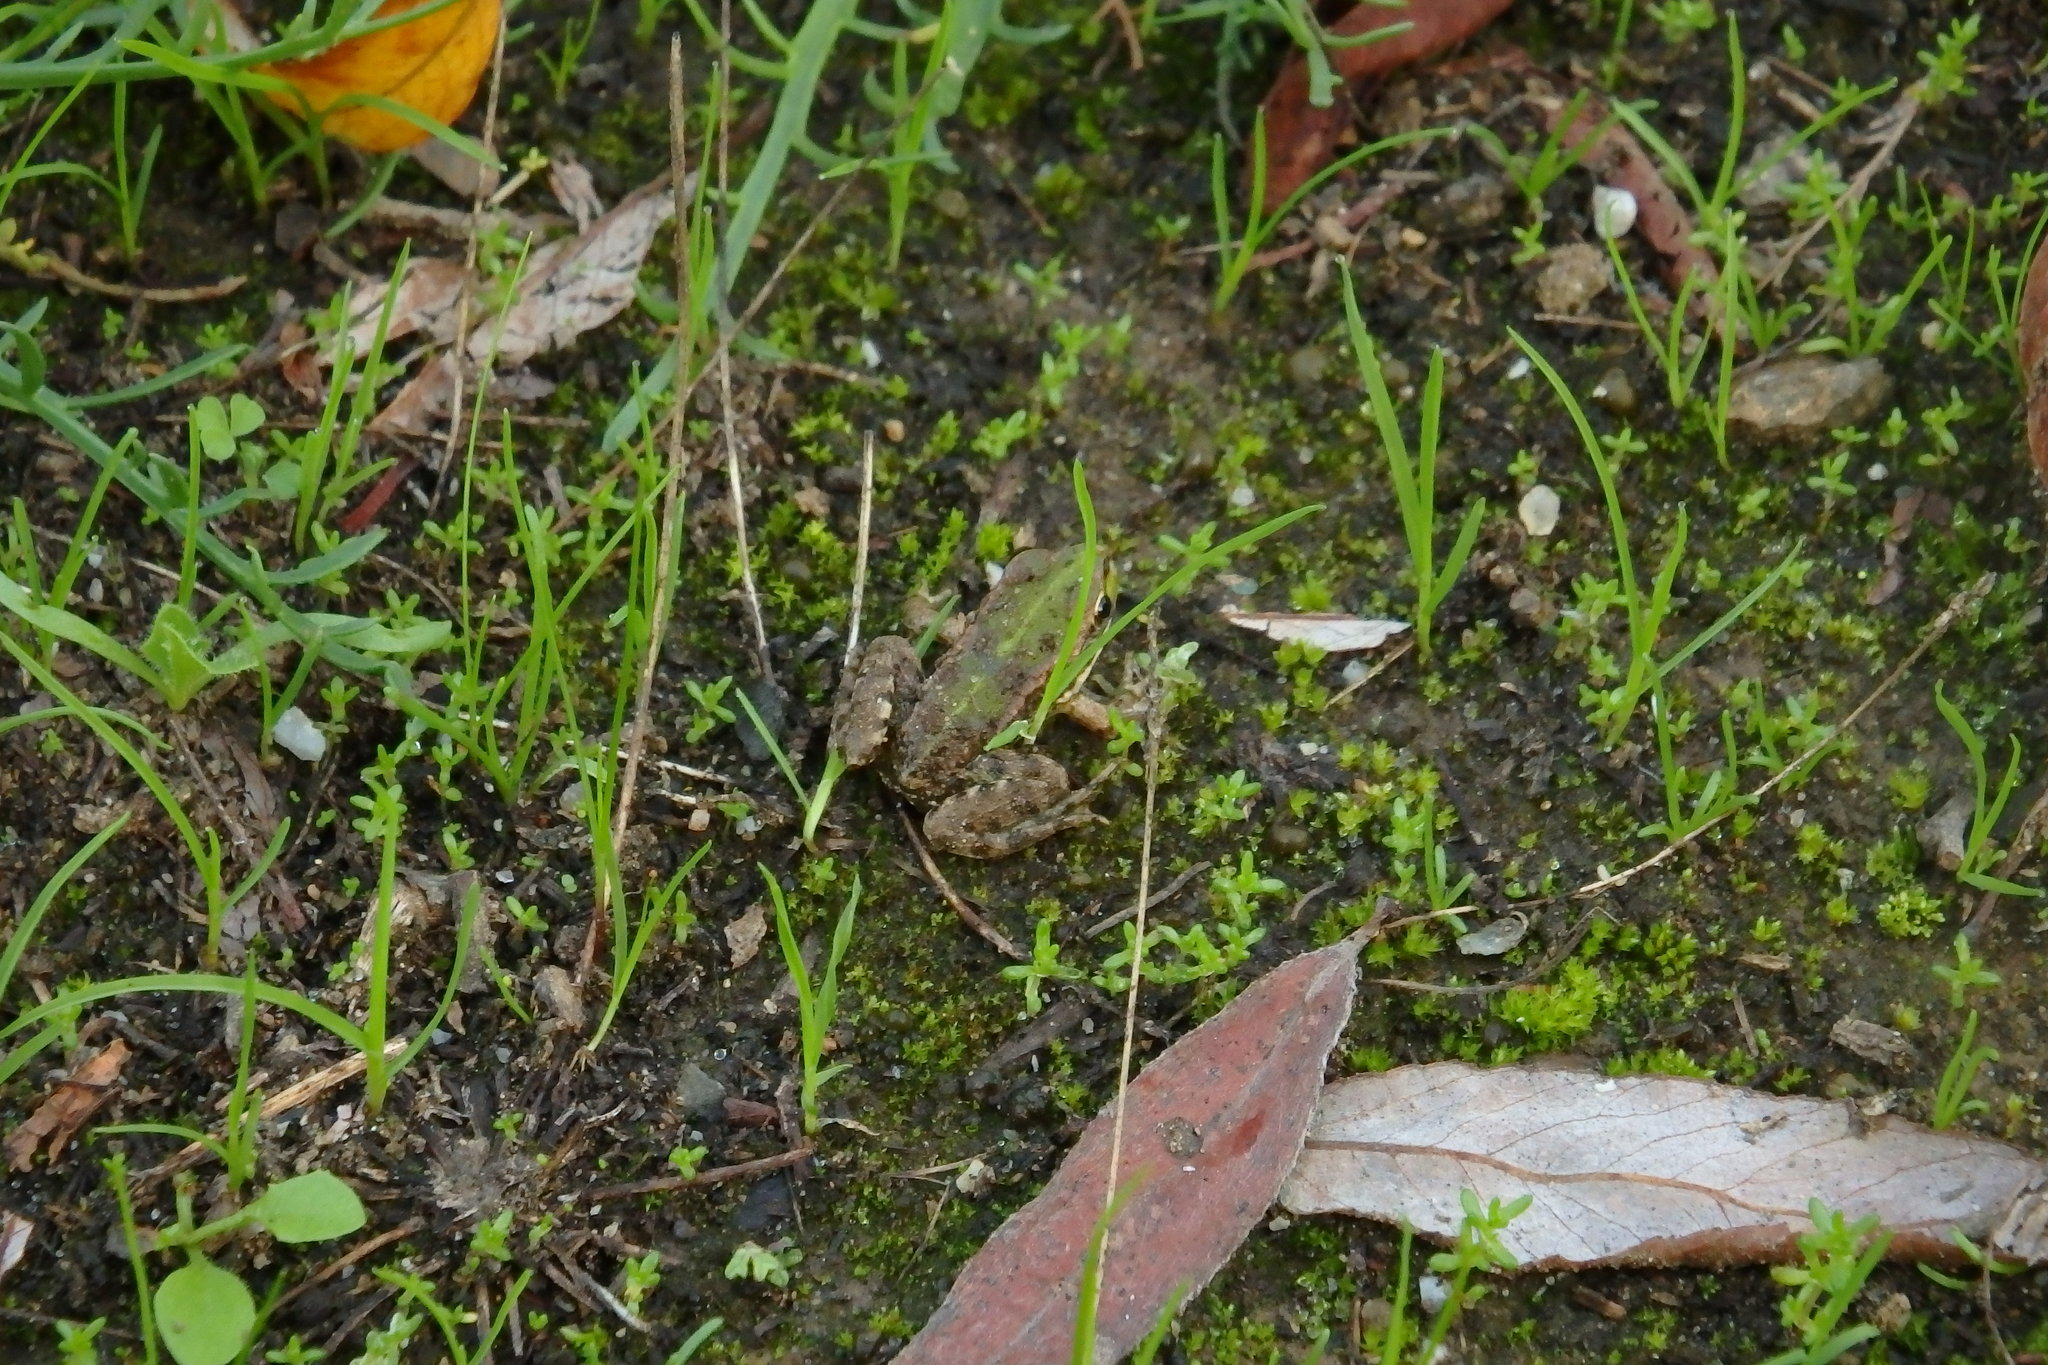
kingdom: Animalia
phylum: Chordata
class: Amphibia
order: Anura
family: Ranidae
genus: Pelophylax
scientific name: Pelophylax perezi
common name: Perez's frog
